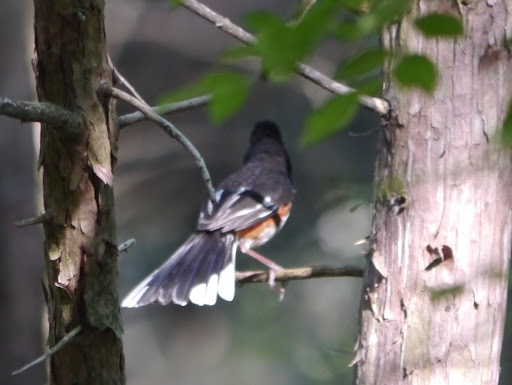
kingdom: Animalia
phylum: Chordata
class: Aves
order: Passeriformes
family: Passerellidae
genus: Pipilo
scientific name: Pipilo erythrophthalmus
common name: Eastern towhee
